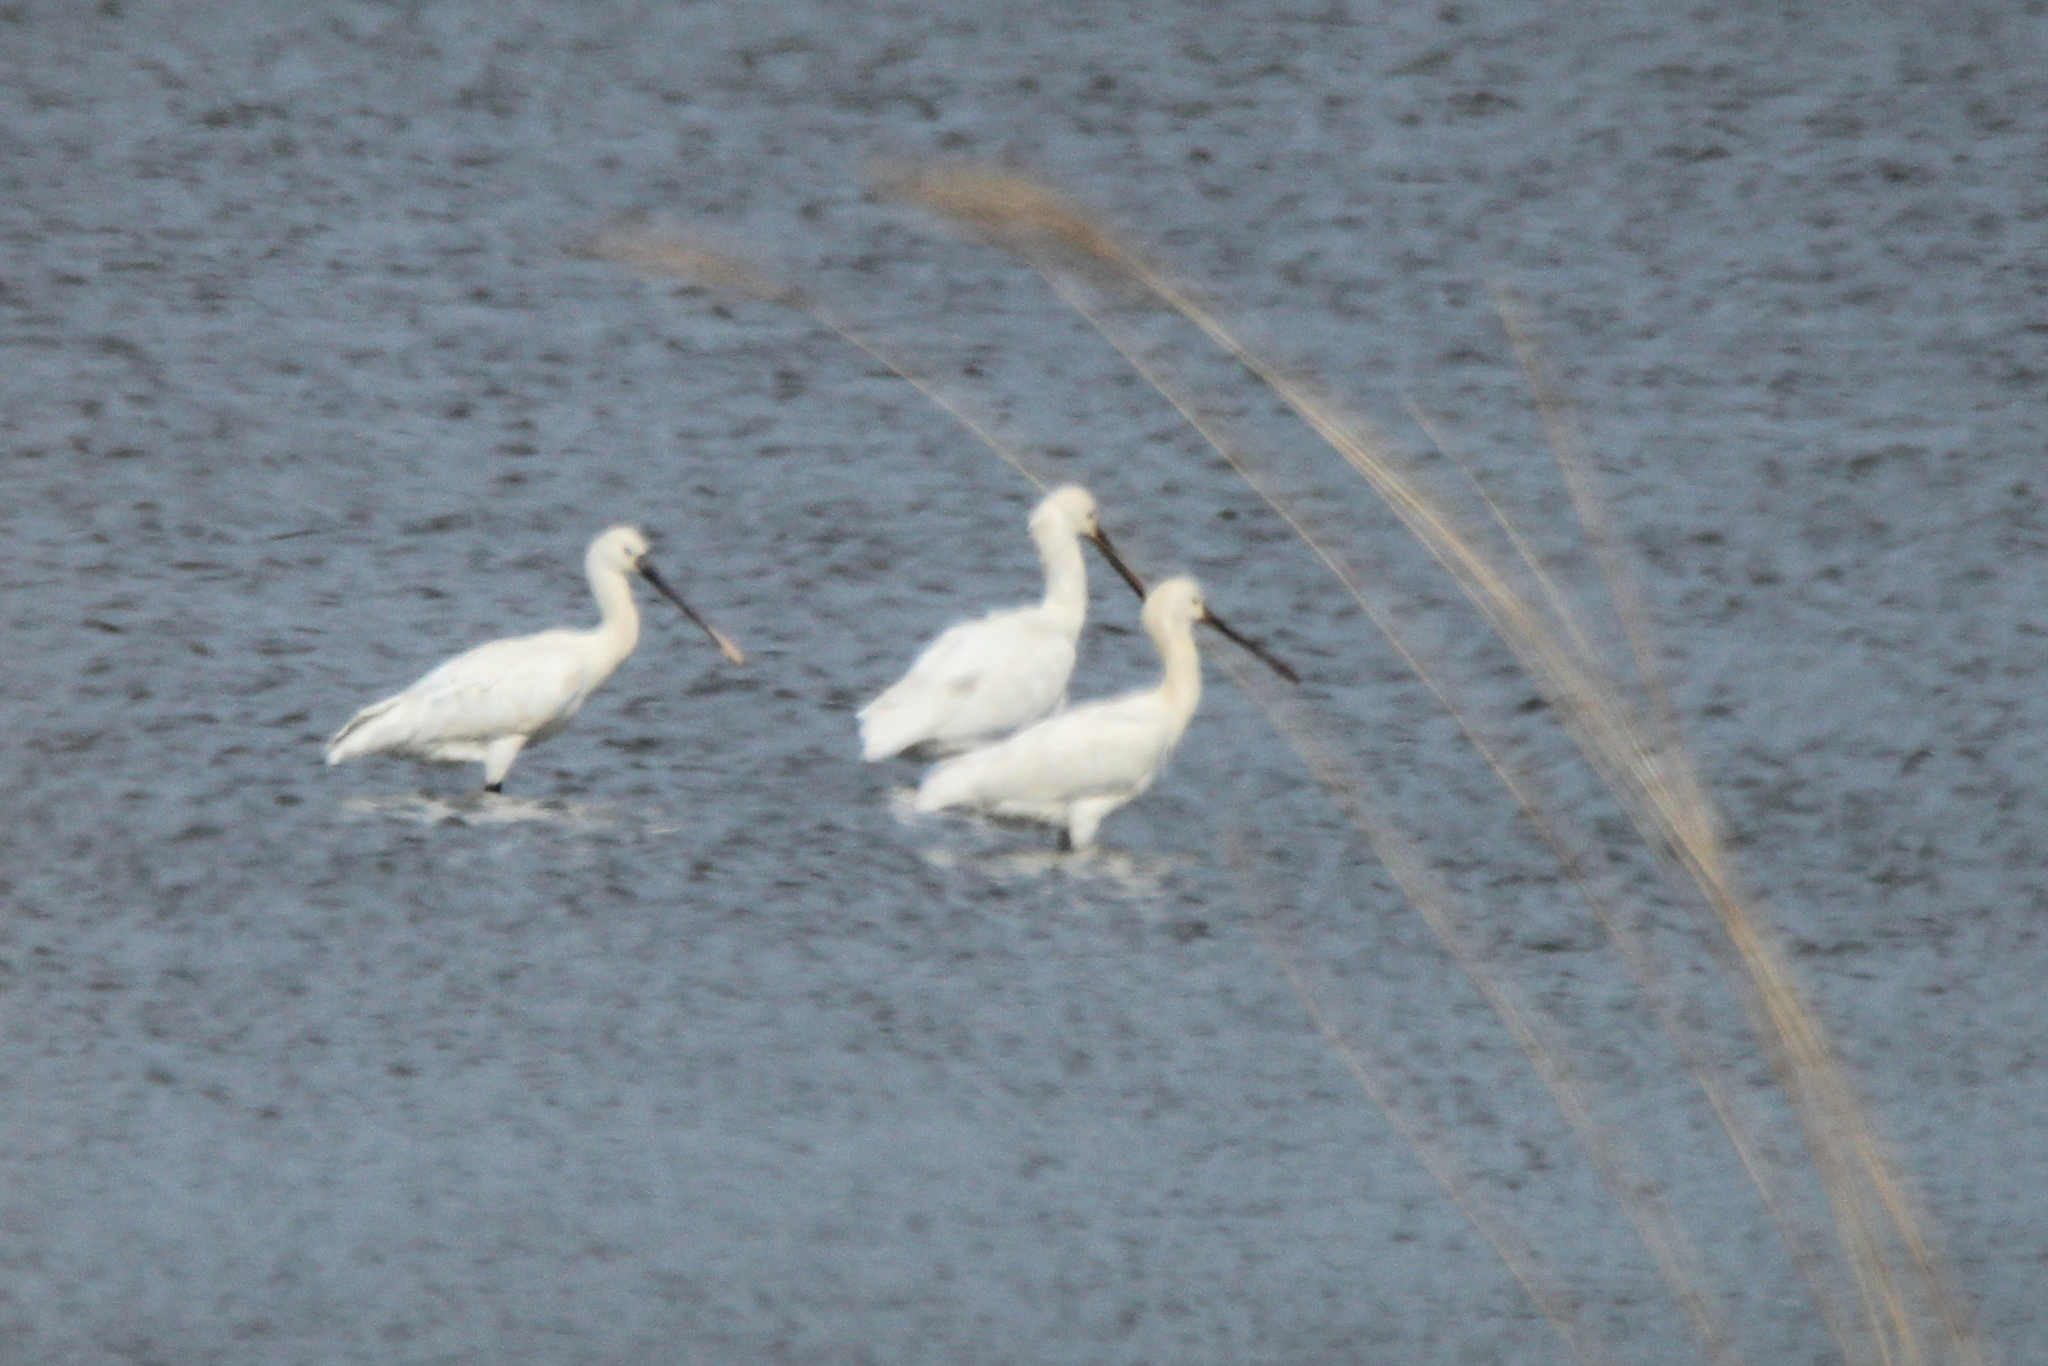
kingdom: Animalia
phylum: Chordata
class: Aves
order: Pelecaniformes
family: Threskiornithidae
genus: Platalea
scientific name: Platalea leucorodia
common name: Eurasian spoonbill
